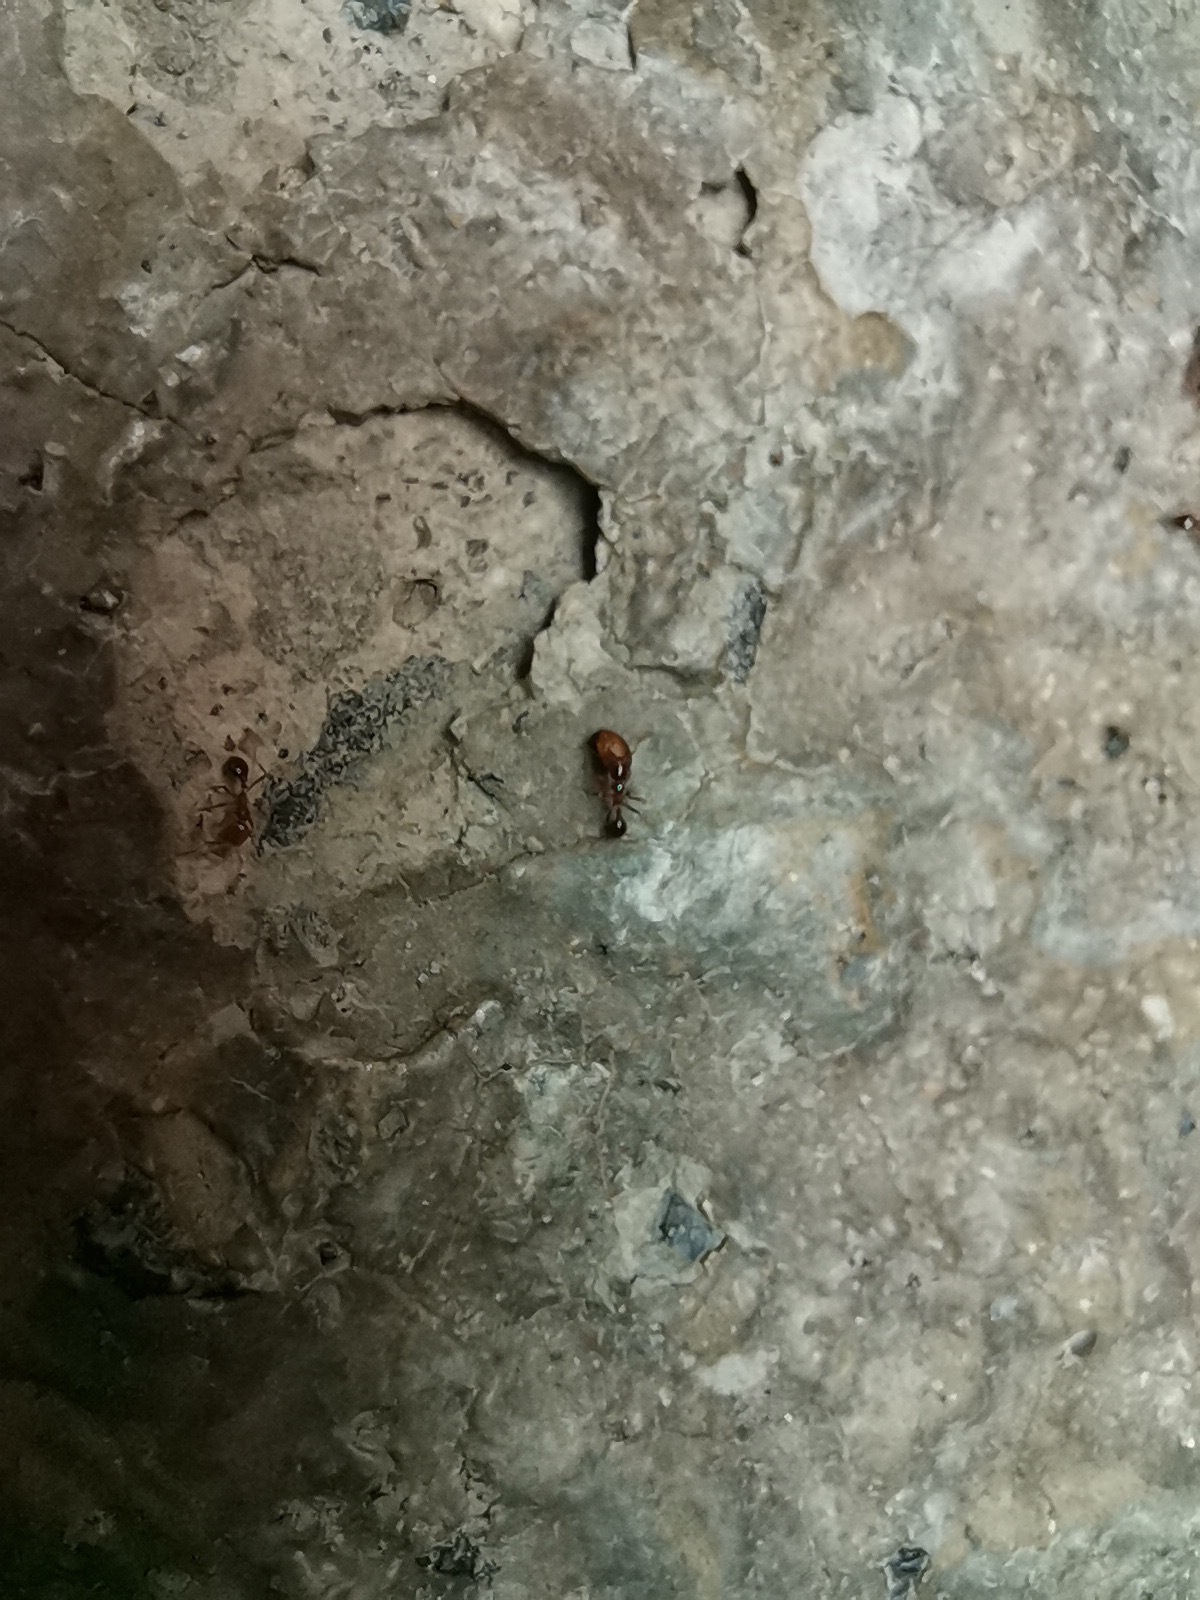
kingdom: Animalia
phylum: Arthropoda
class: Insecta
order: Hymenoptera
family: Formicidae
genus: Solenopsis
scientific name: Solenopsis geminata
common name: Tropical fire ant
